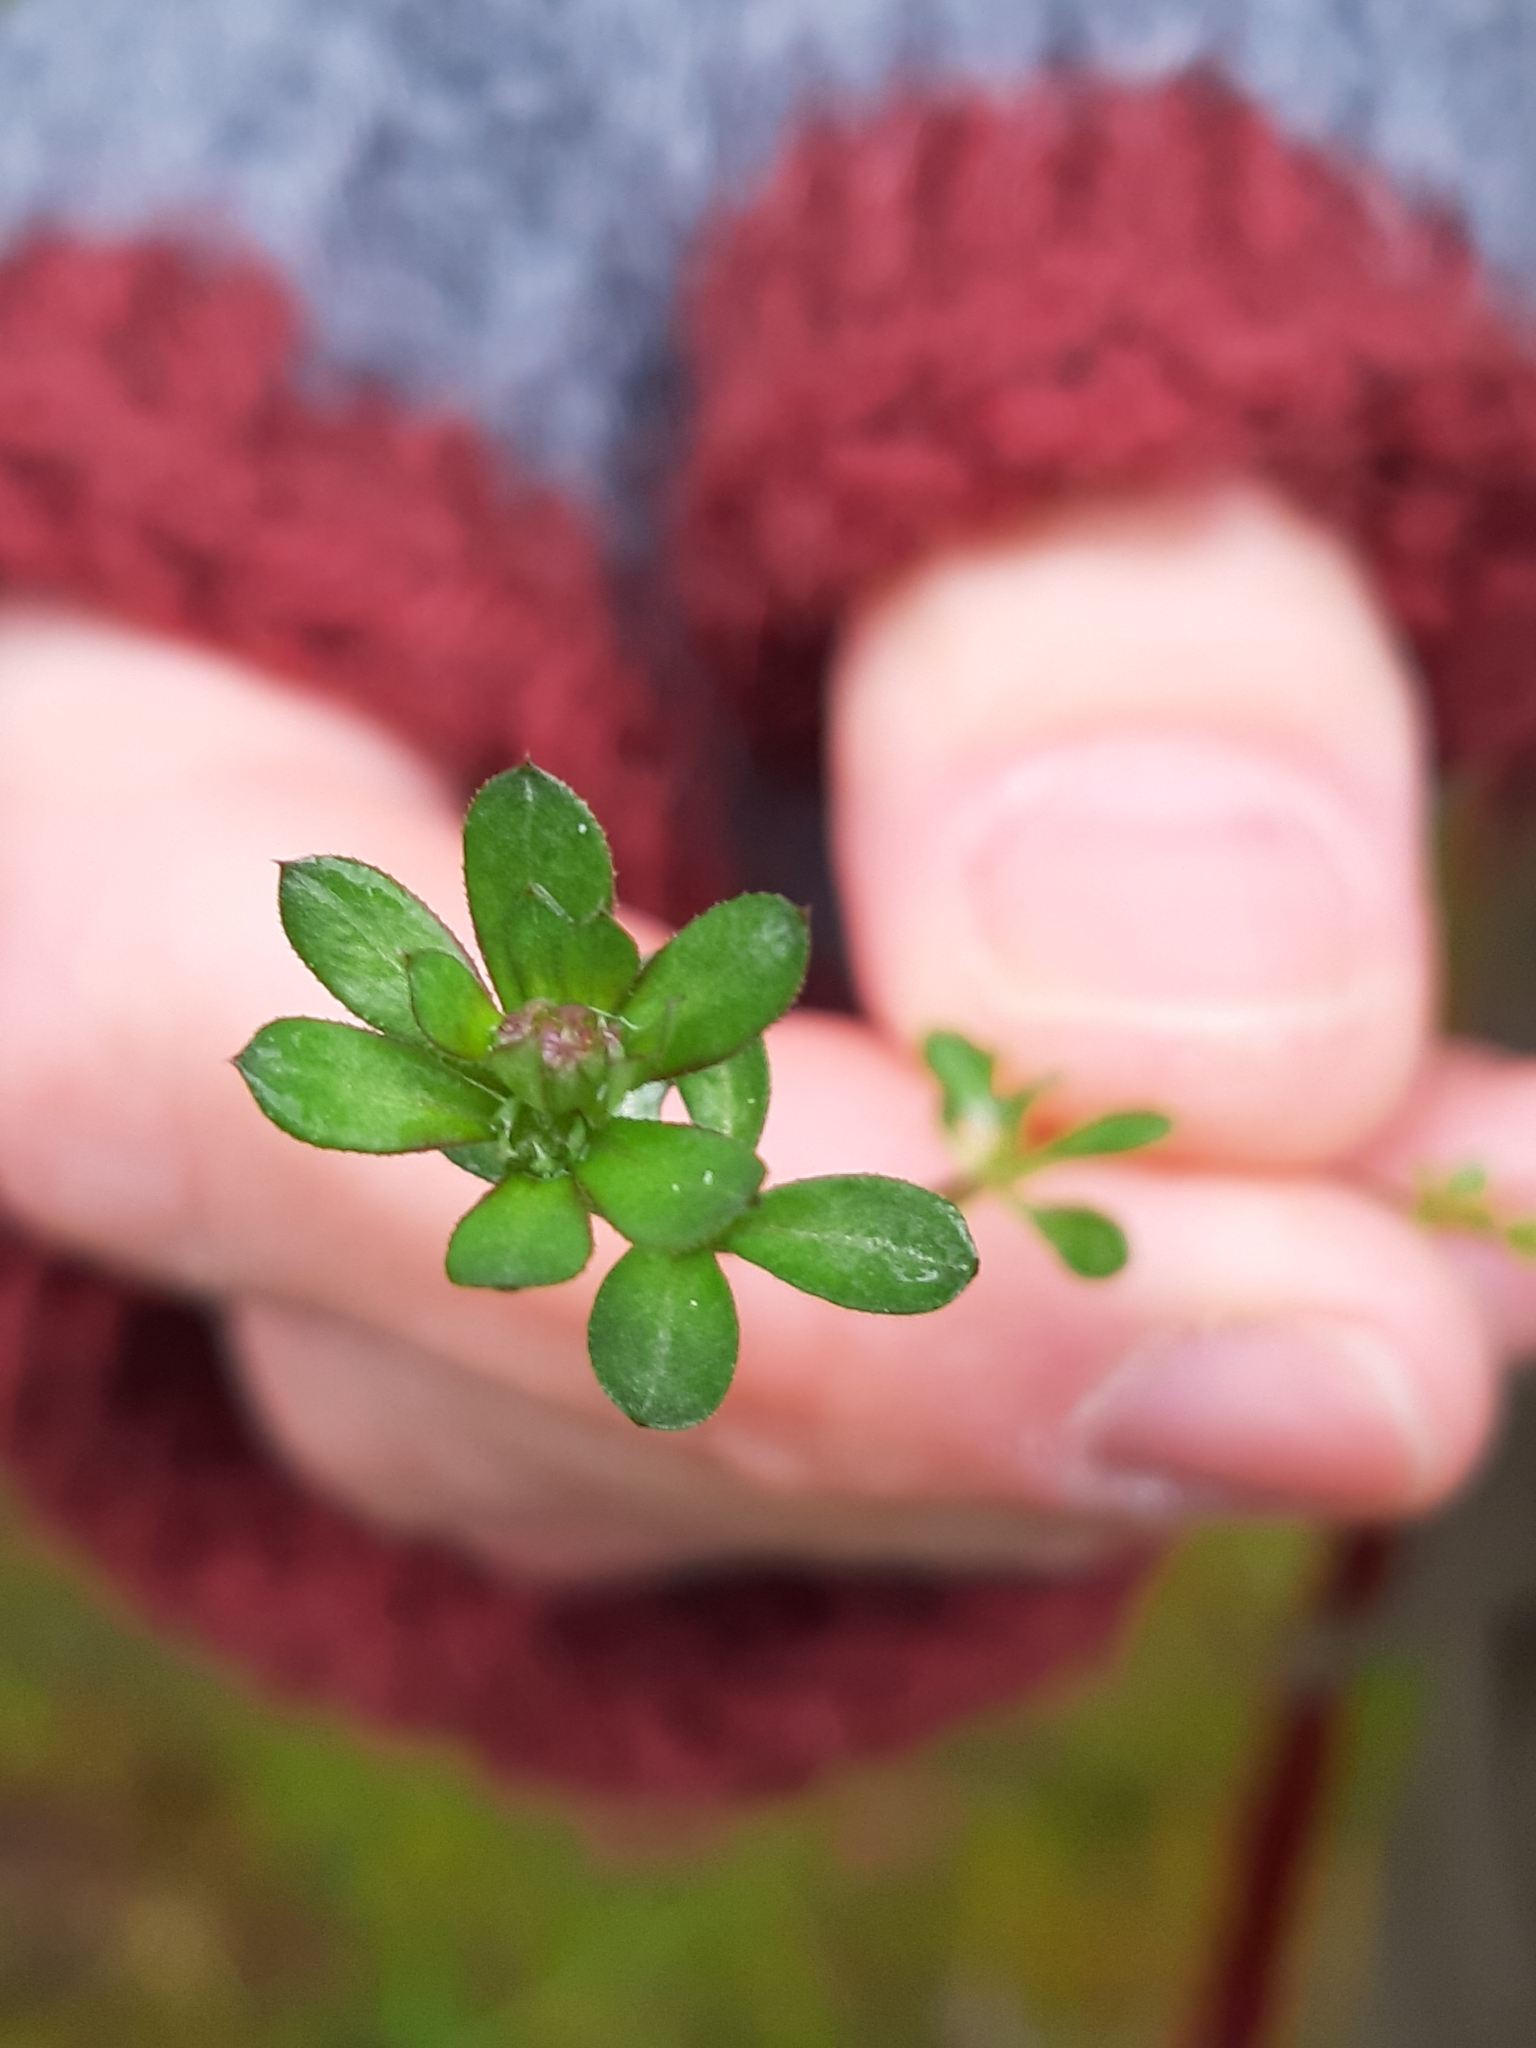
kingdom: Plantae
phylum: Tracheophyta
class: Magnoliopsida
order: Gentianales
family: Rubiaceae
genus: Galium
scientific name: Galium saxatile
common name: Heath bedstraw
